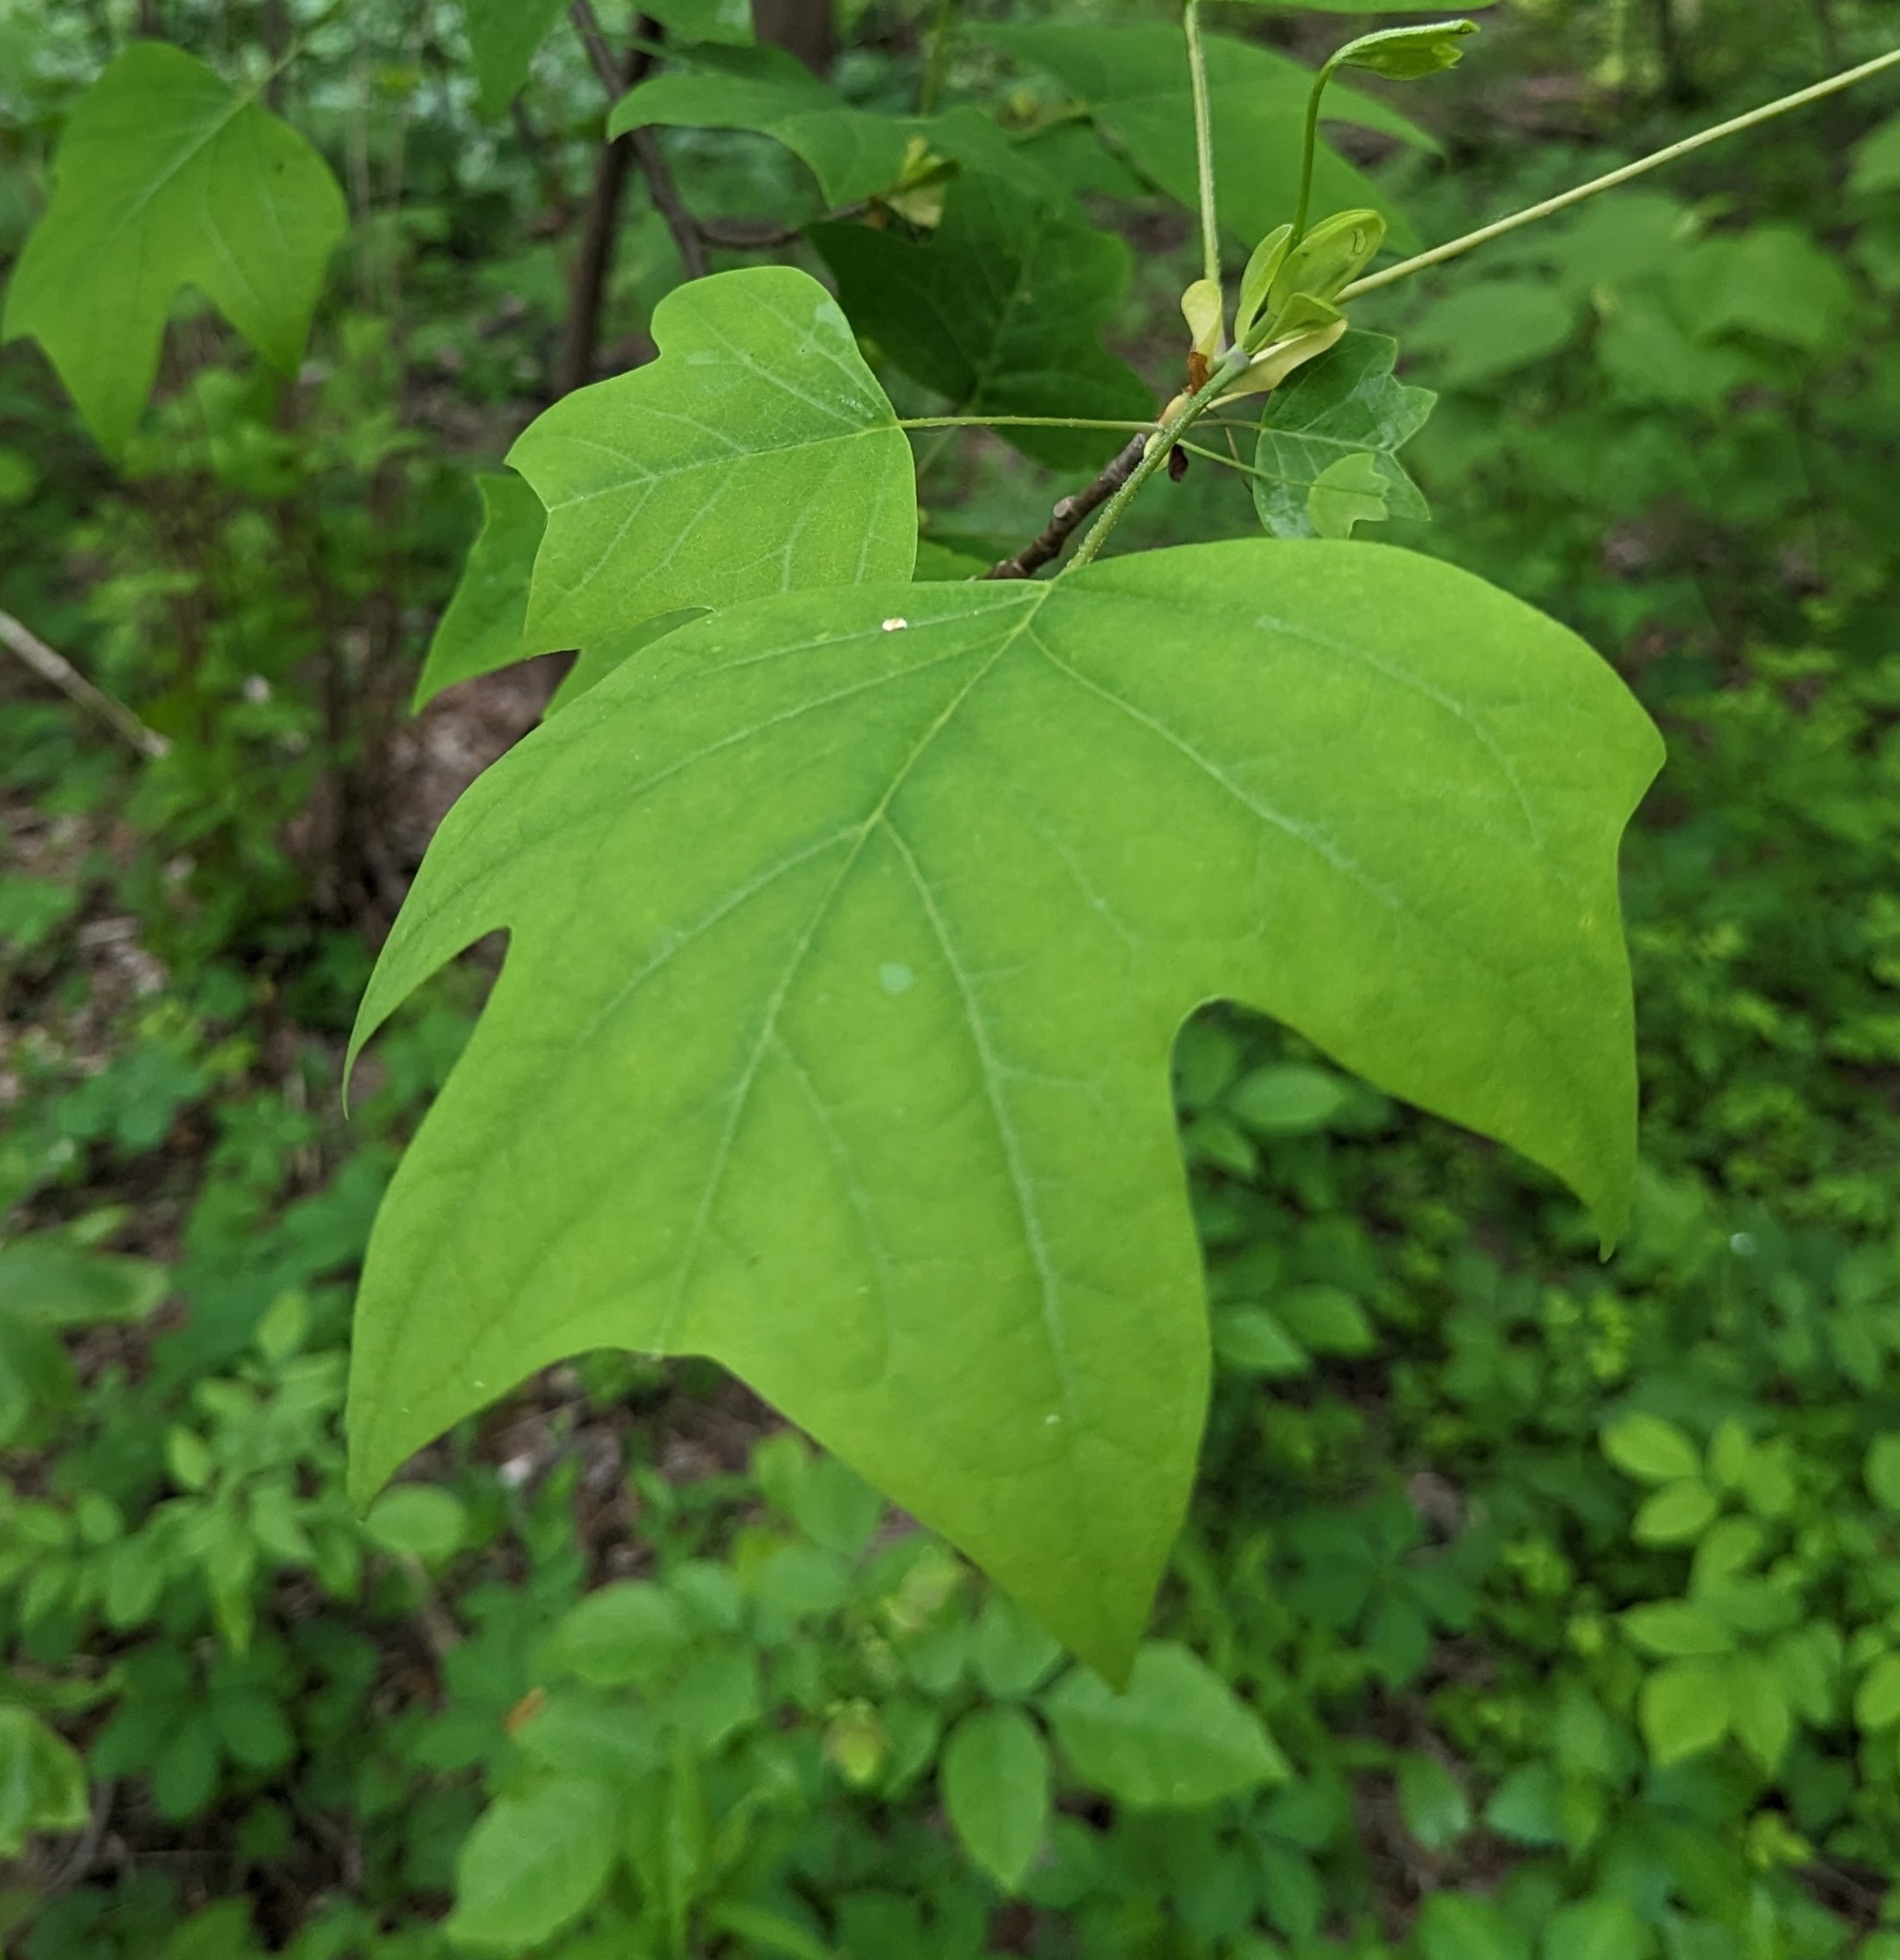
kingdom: Plantae
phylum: Tracheophyta
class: Magnoliopsida
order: Magnoliales
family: Magnoliaceae
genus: Liriodendron
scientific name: Liriodendron tulipifera
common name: Tulip tree
